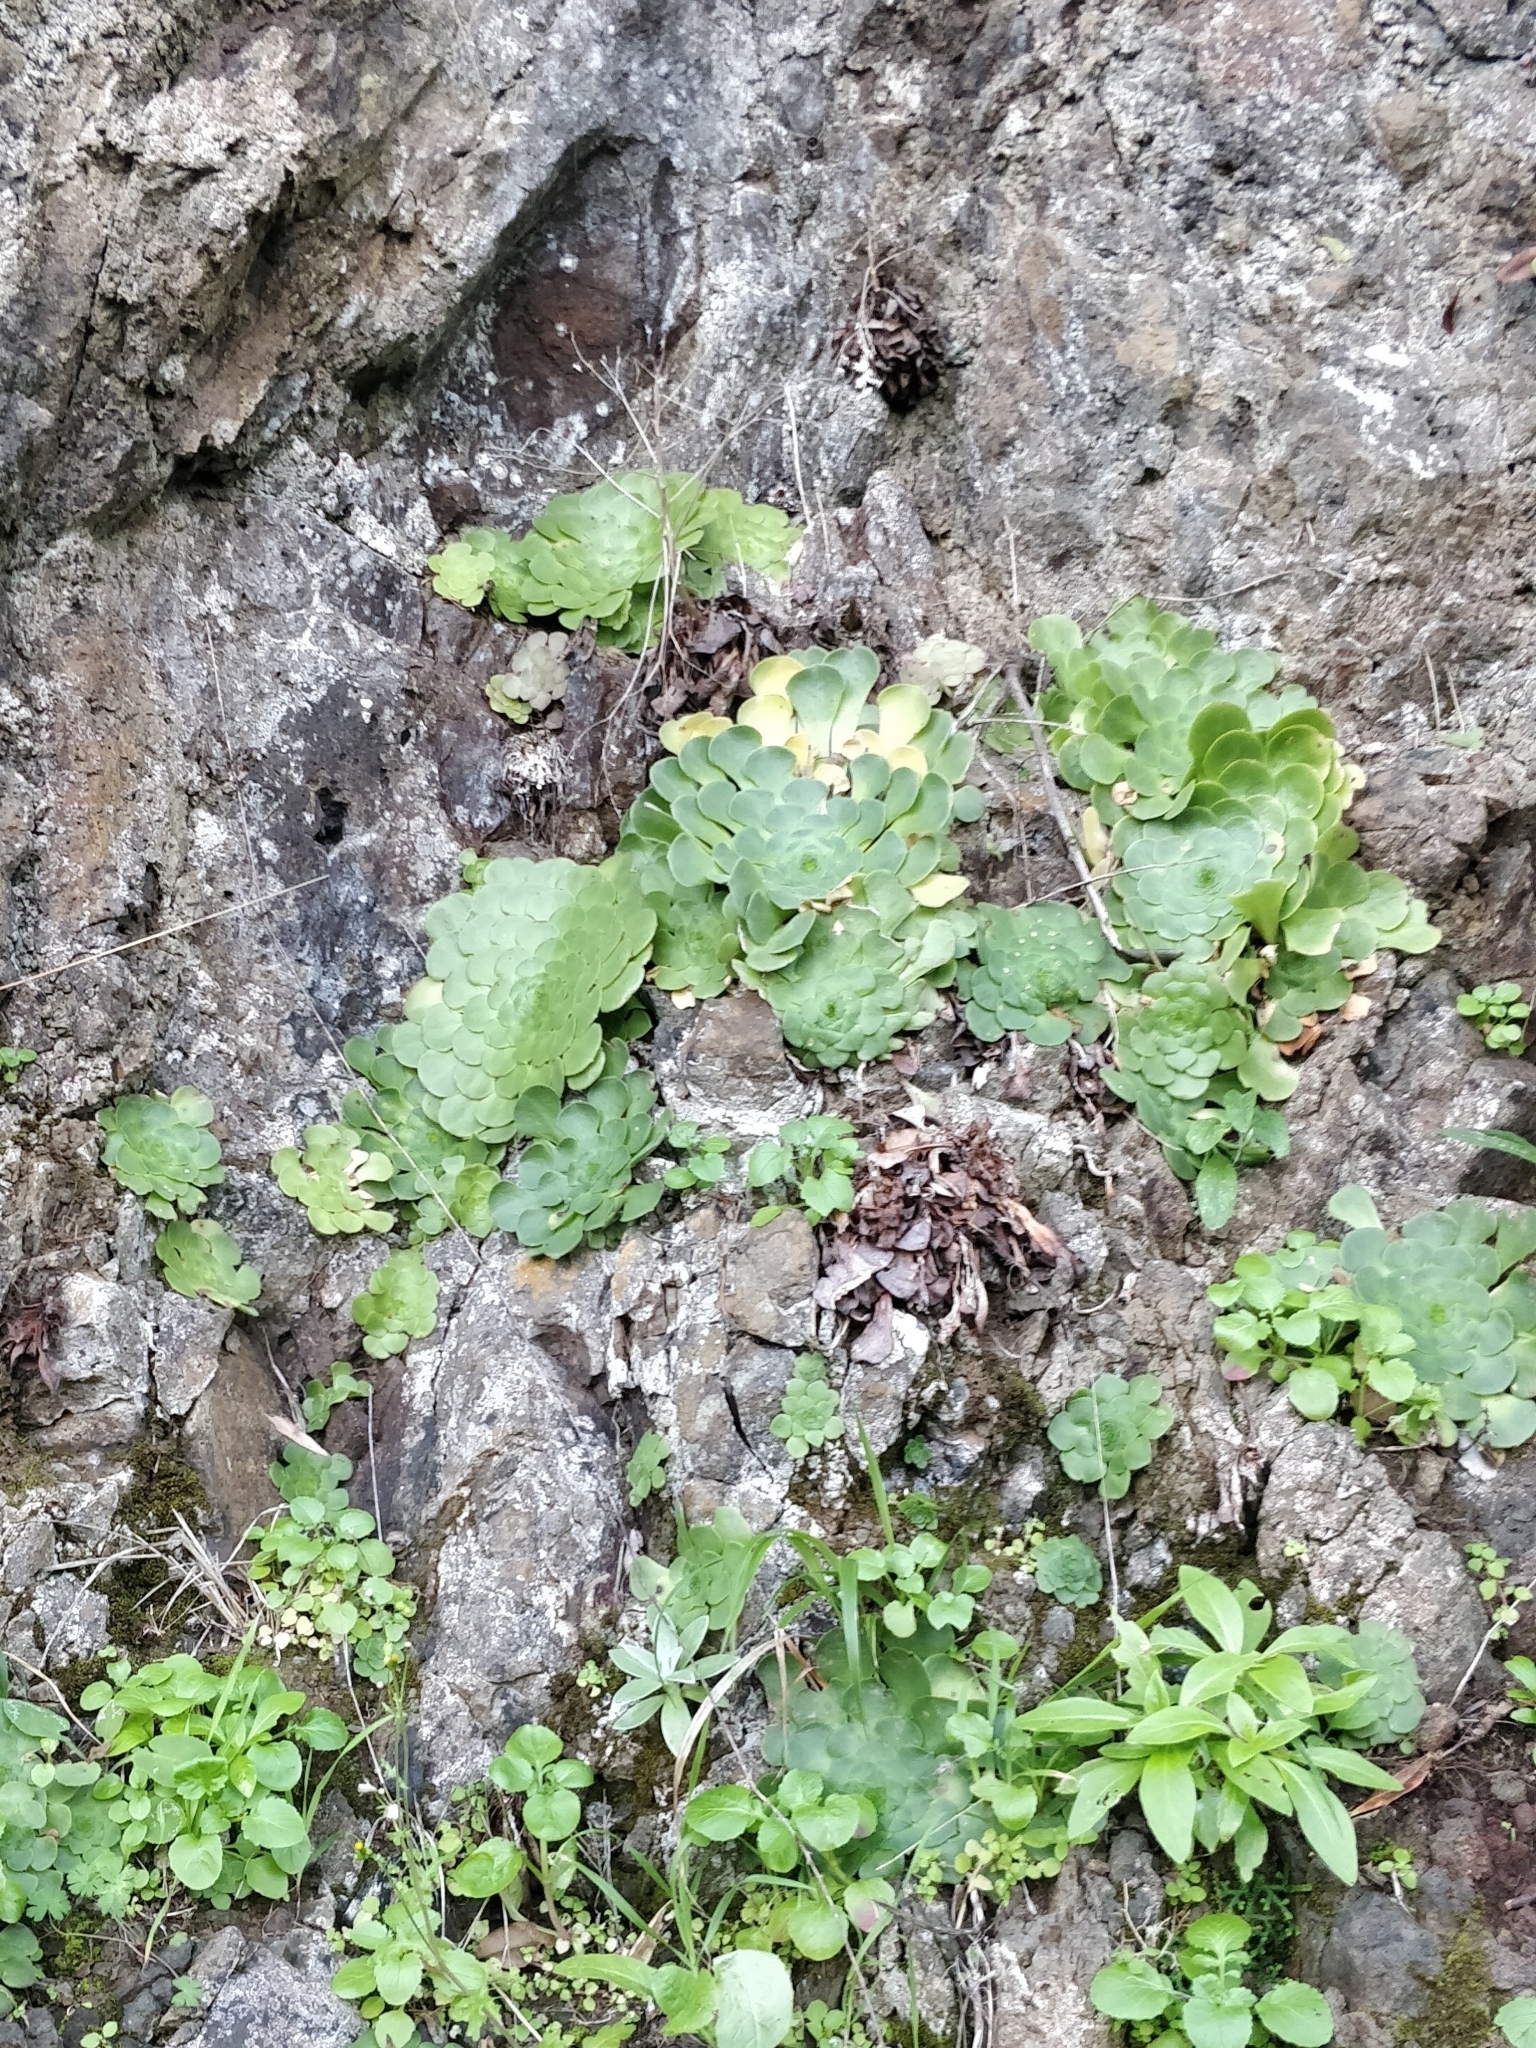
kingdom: Plantae
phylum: Tracheophyta
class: Magnoliopsida
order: Saxifragales
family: Crassulaceae
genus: Aeonium
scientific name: Aeonium glandulosum
